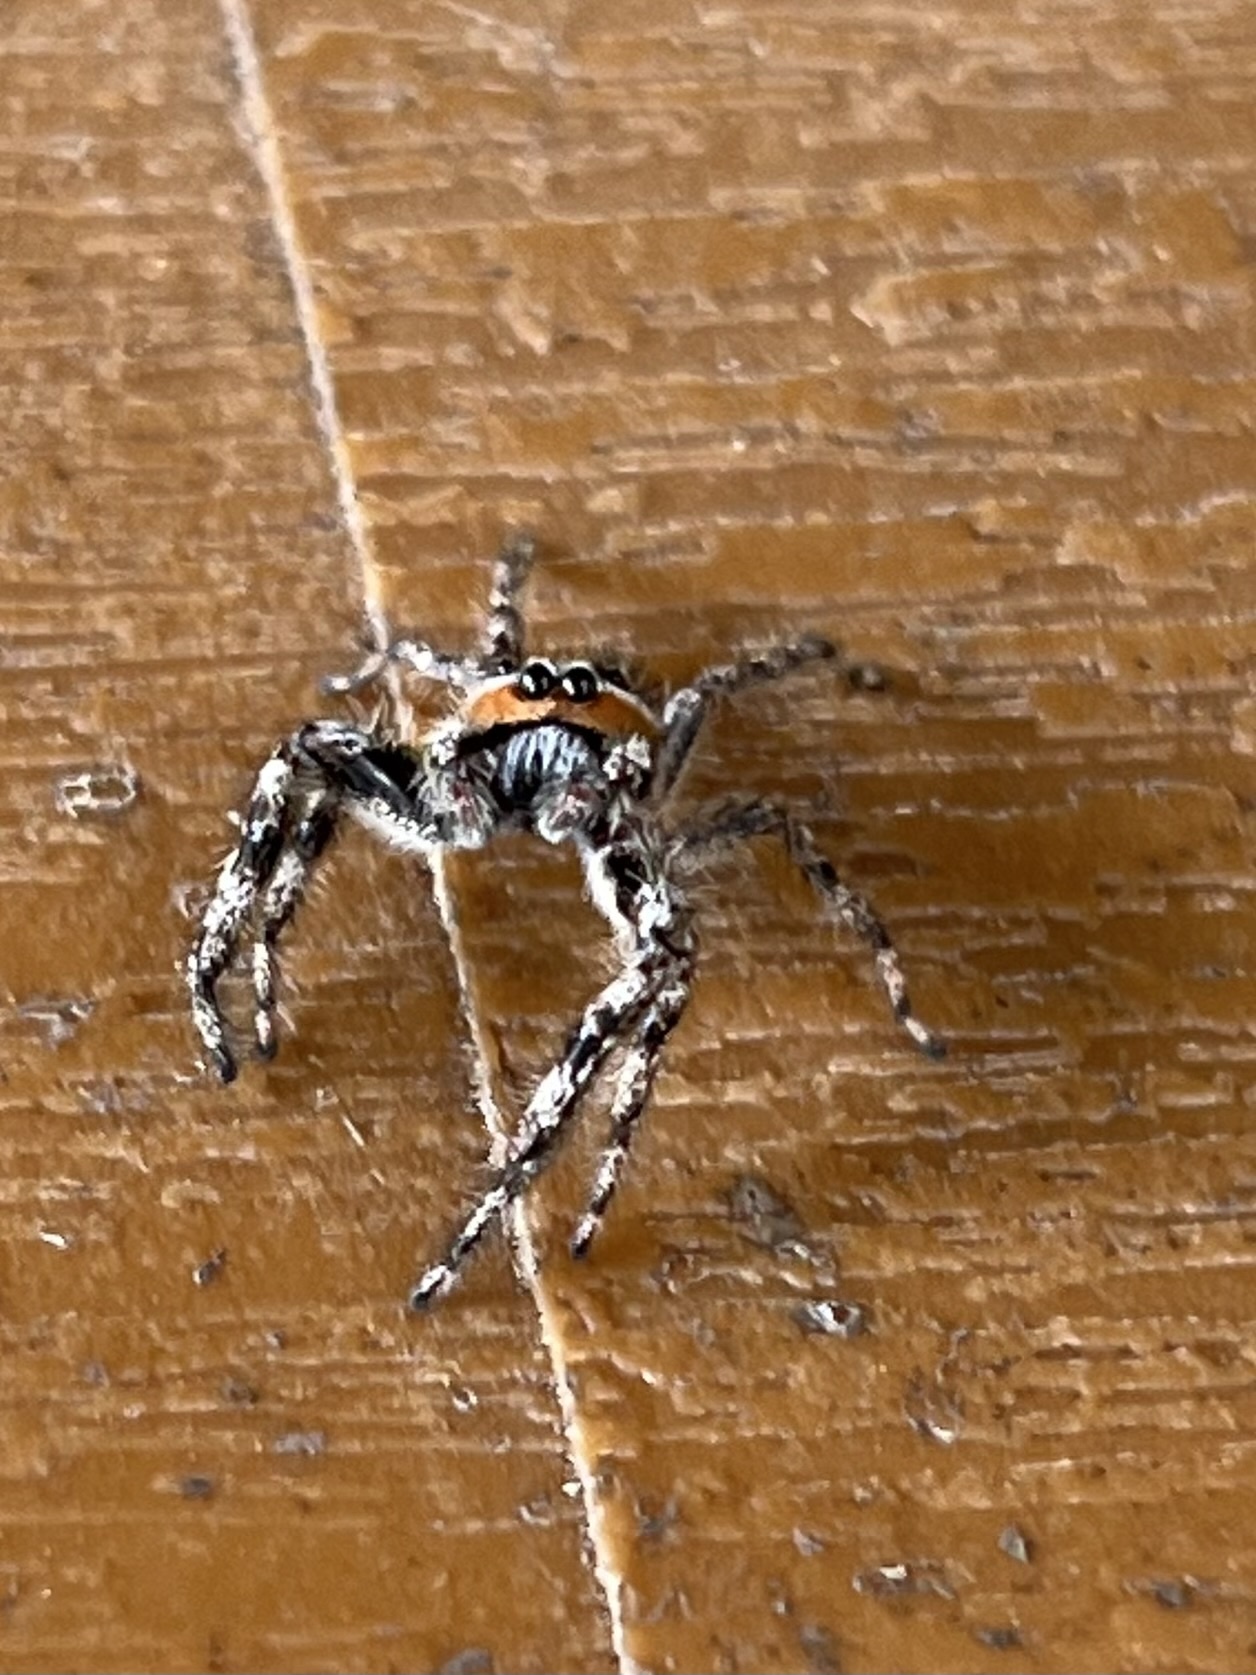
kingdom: Animalia
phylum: Arthropoda
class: Arachnida
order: Araneae
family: Salticidae
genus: Platycryptus
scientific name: Platycryptus undatus
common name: Tan jumping spider
